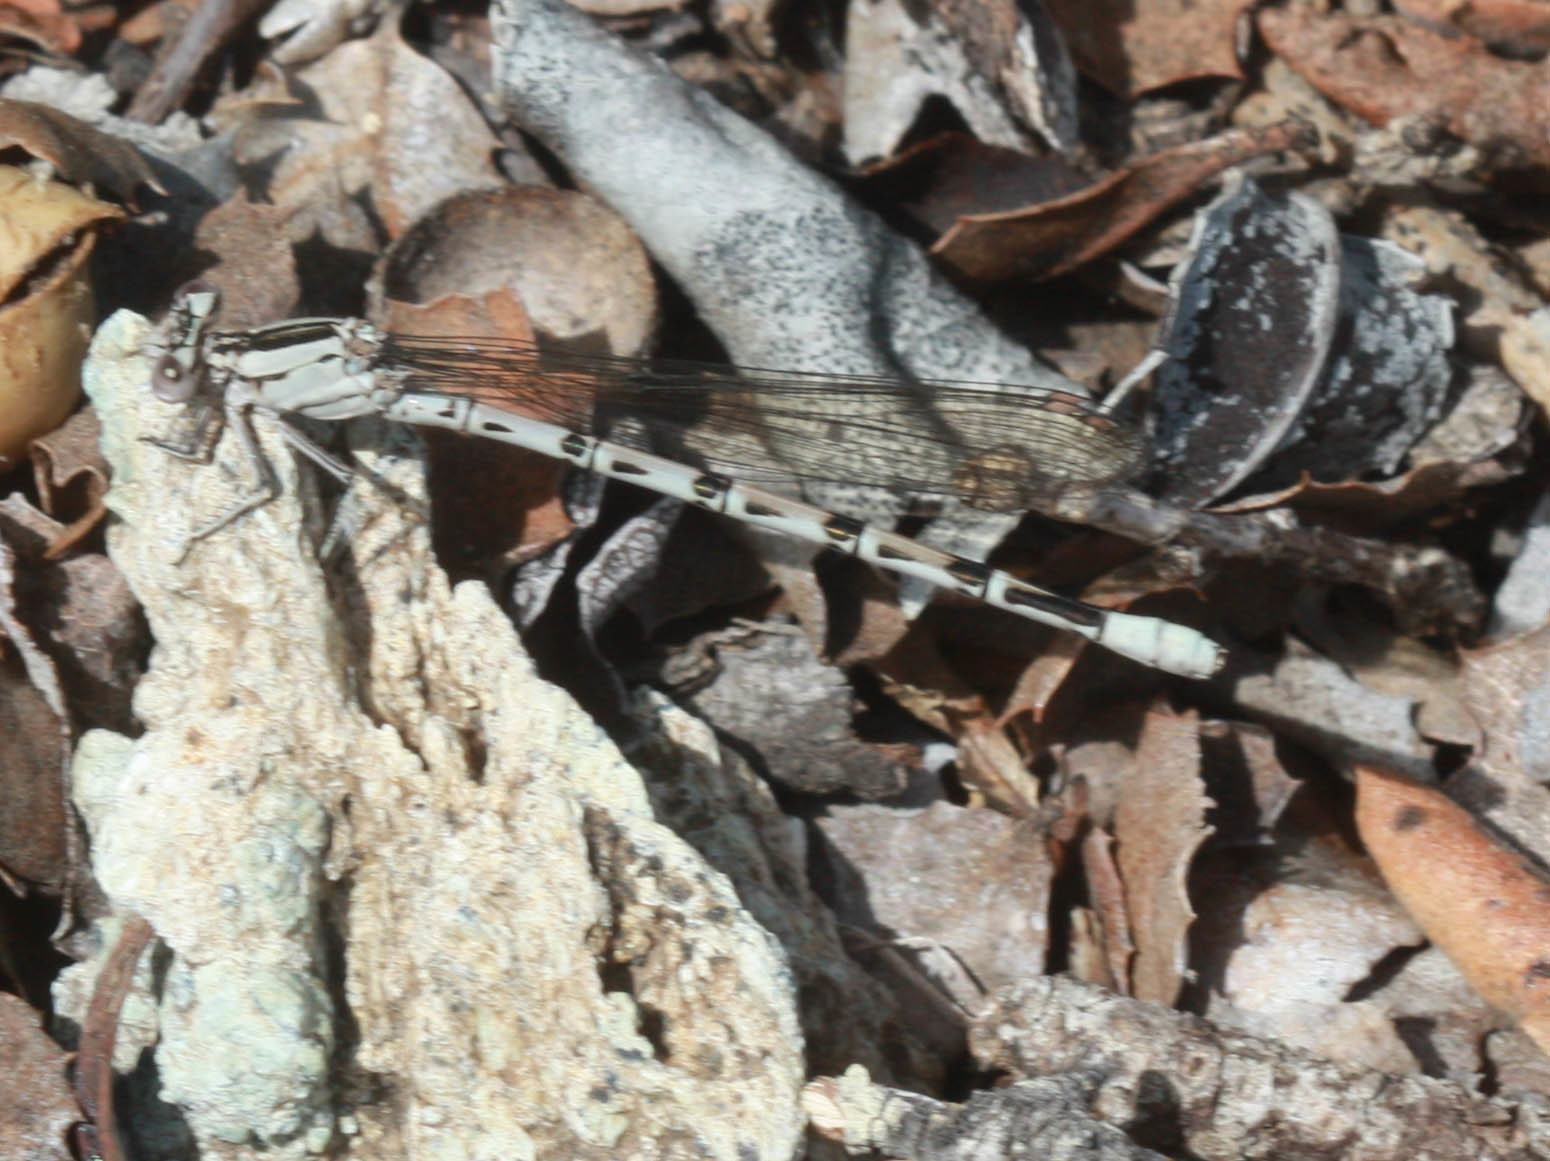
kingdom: Animalia
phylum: Arthropoda
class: Insecta
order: Odonata
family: Coenagrionidae
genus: Argia
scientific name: Argia vivida
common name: Vivid dancer
